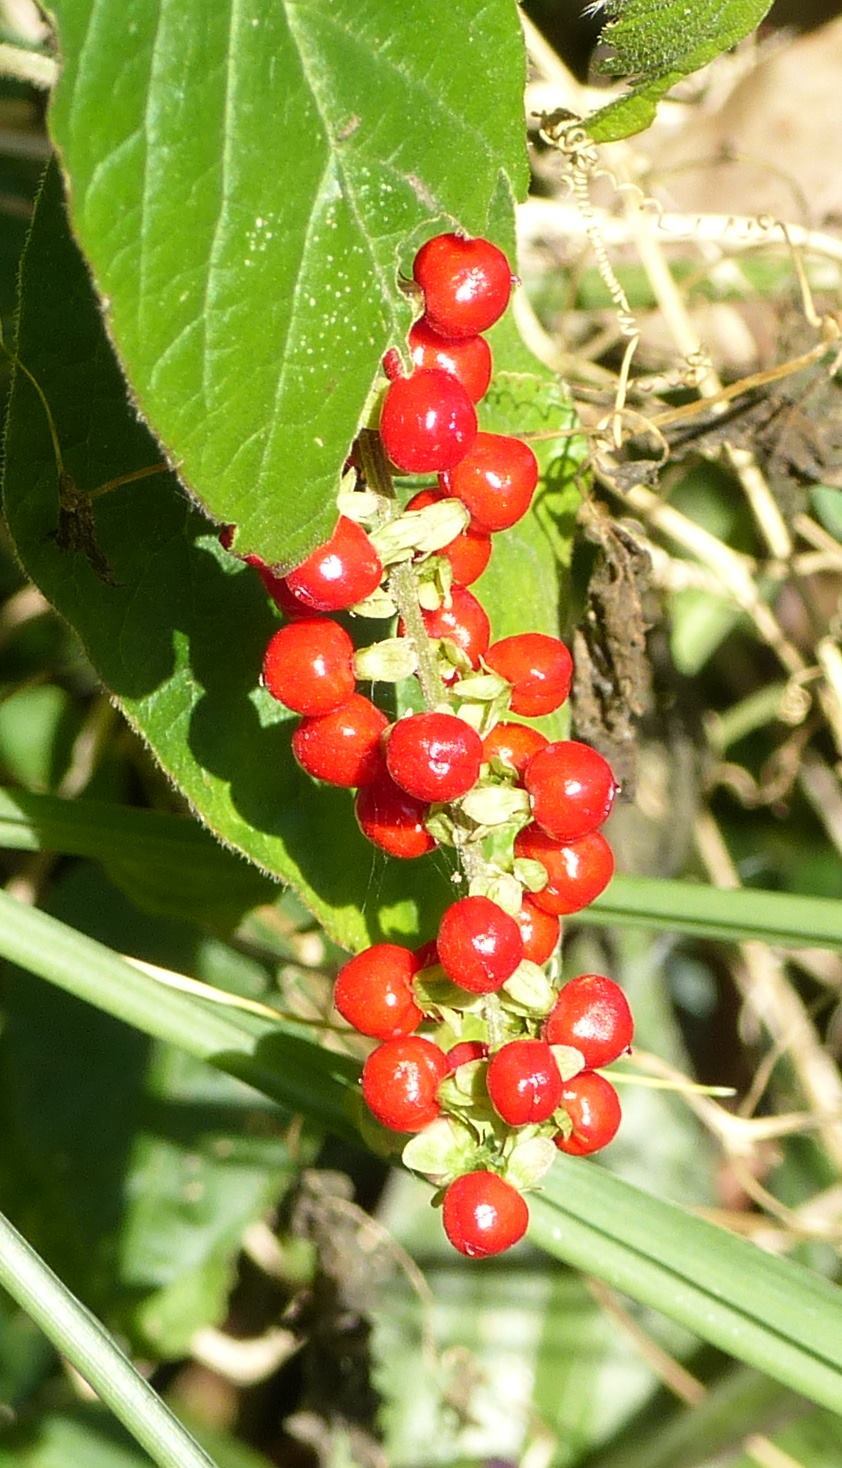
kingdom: Plantae
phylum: Tracheophyta
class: Magnoliopsida
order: Caryophyllales
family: Phytolaccaceae
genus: Rivina
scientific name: Rivina humilis
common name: Rougeplant
